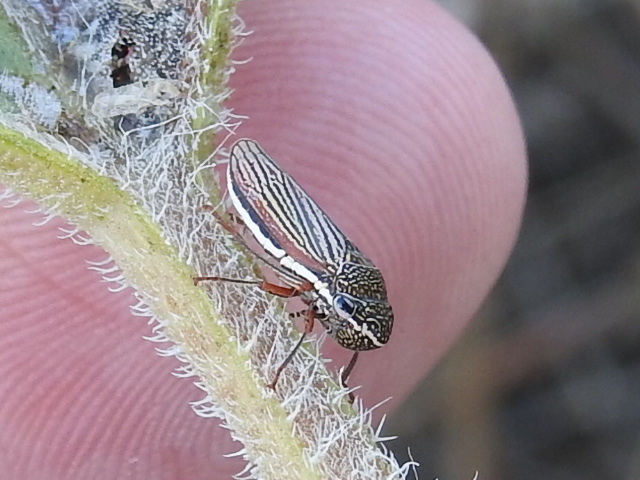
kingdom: Animalia
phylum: Arthropoda
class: Insecta
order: Hemiptera
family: Cicadellidae
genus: Cuerna
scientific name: Cuerna costalis
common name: Lateral-lined sharpshooter
